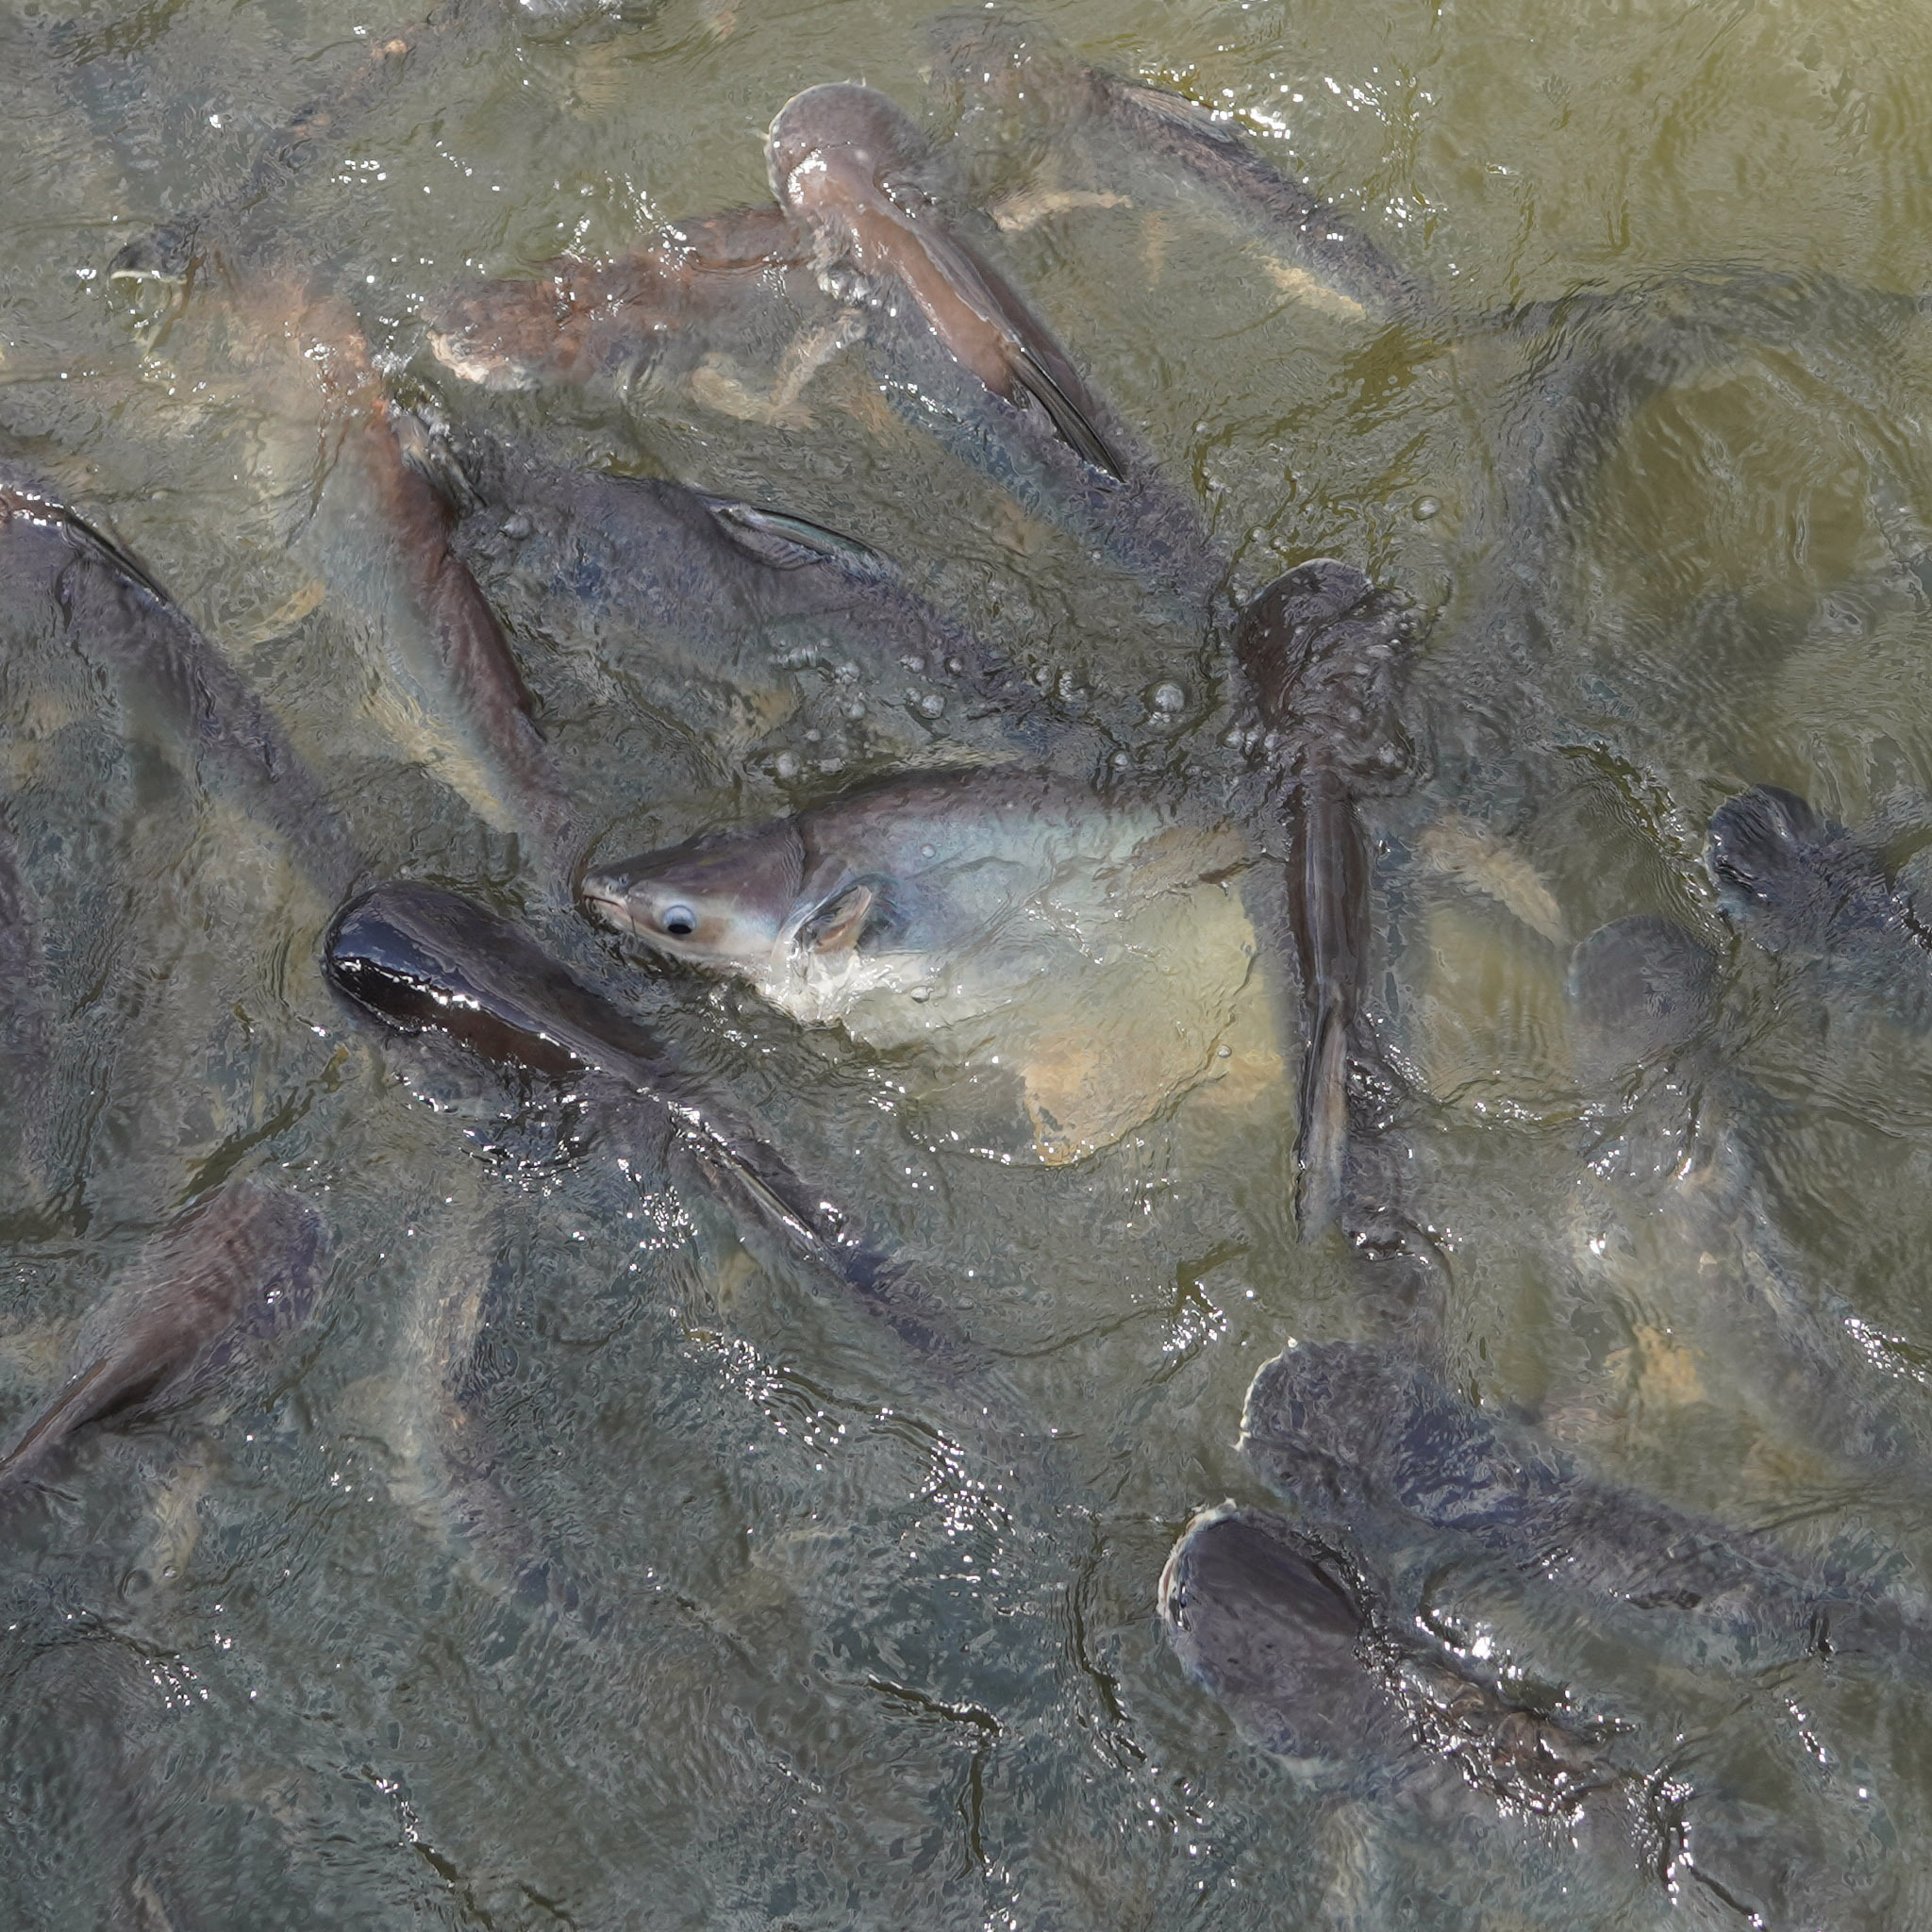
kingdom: Animalia
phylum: Chordata
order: Siluriformes
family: Pangasiidae
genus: Pangasianodon
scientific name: Pangasianodon hypophthalmus
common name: Striped catfish
